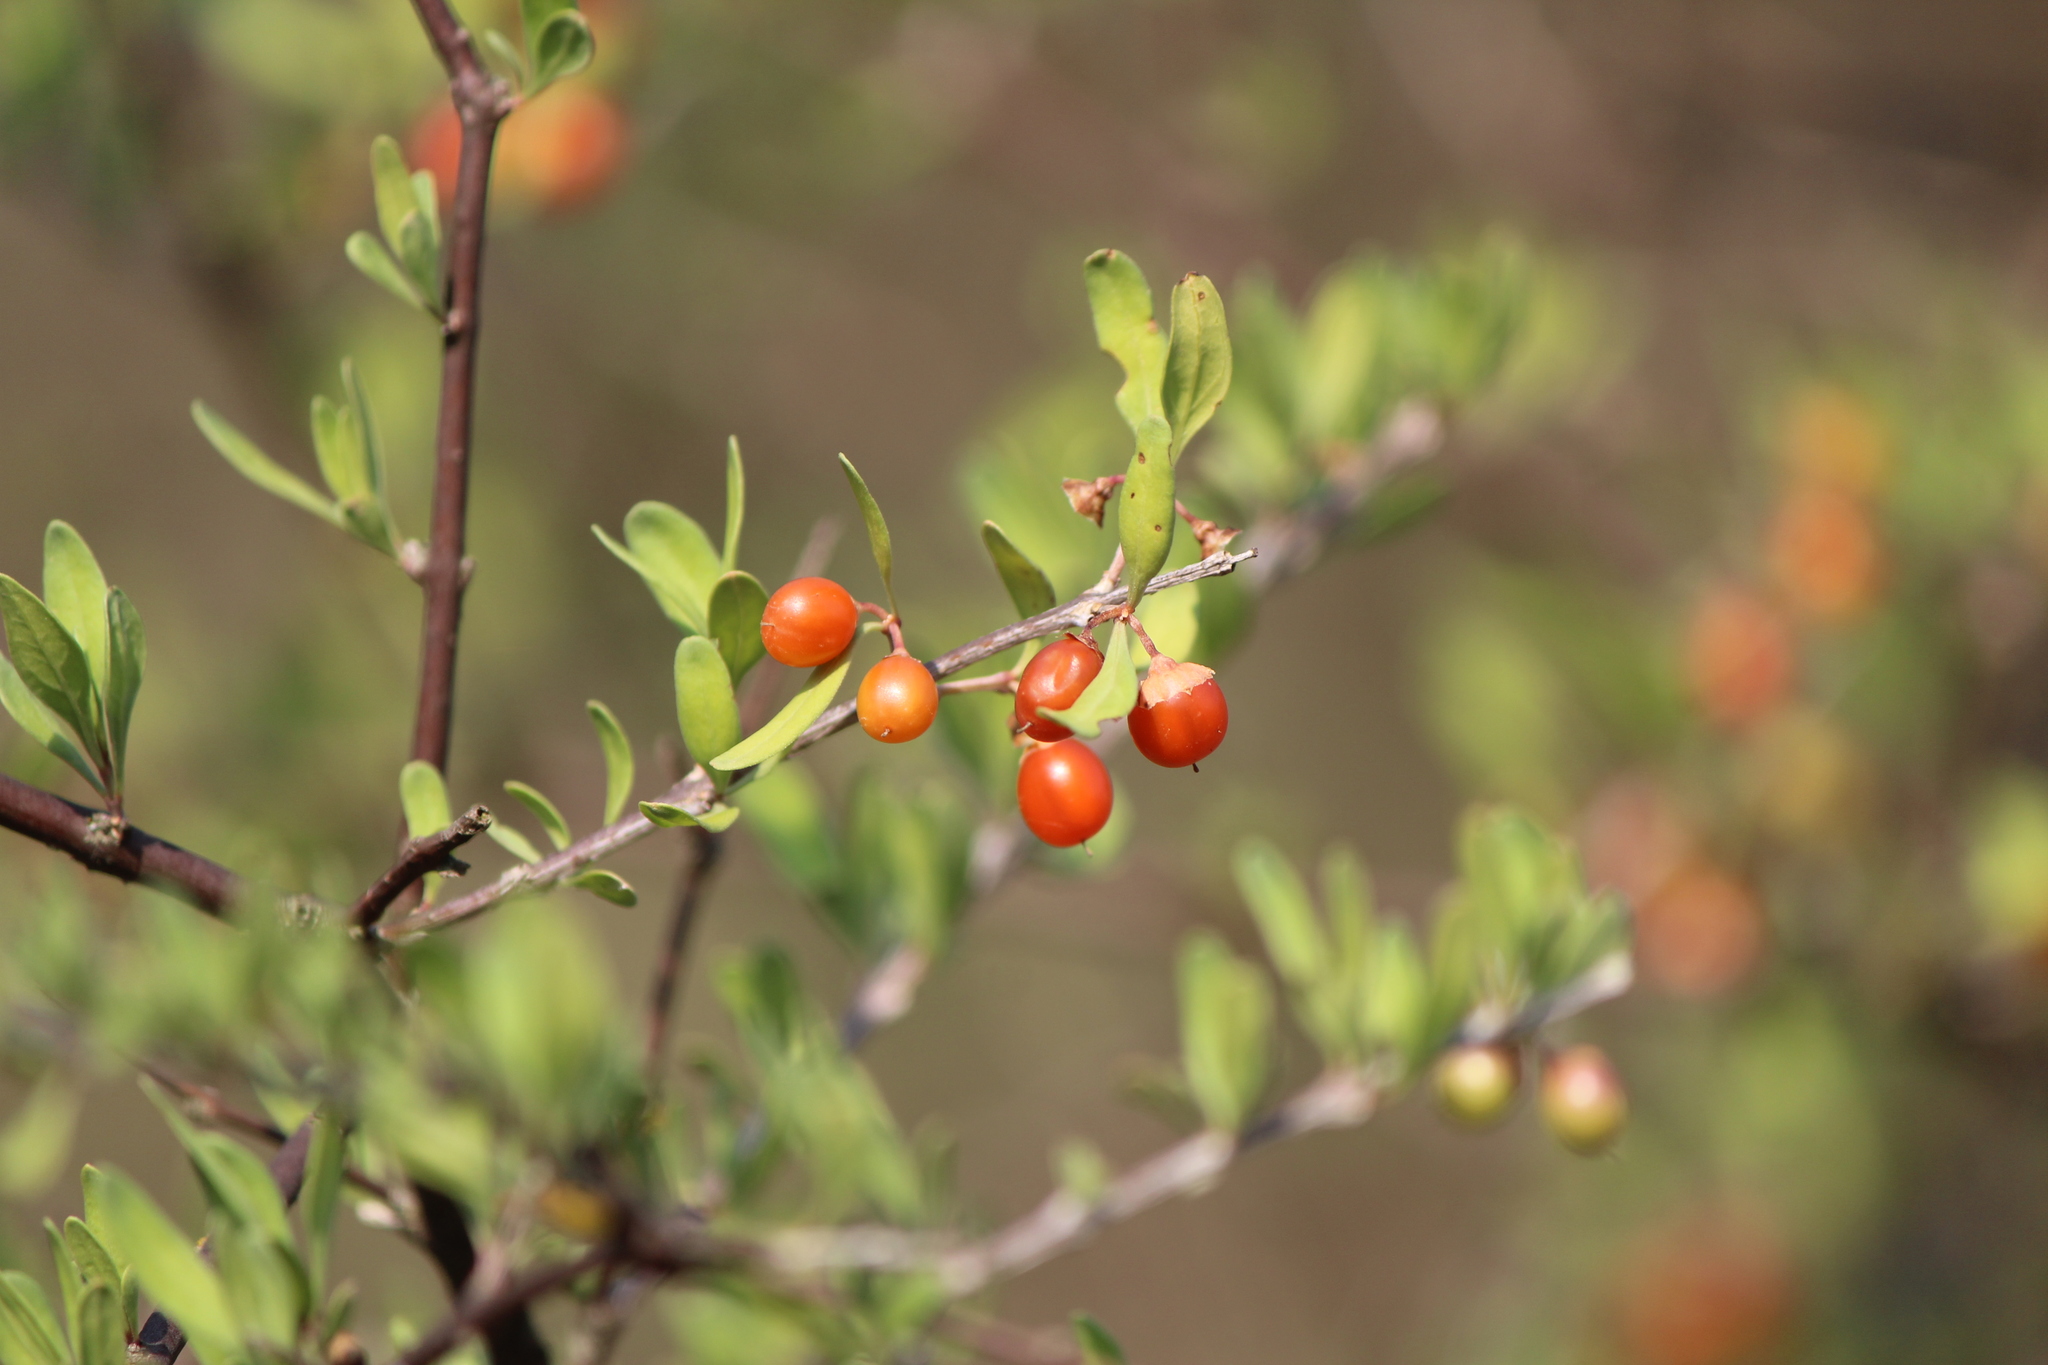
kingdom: Plantae
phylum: Tracheophyta
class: Magnoliopsida
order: Solanales
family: Solanaceae
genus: Lycium
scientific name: Lycium berlandieri
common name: Berlandier wolfberry
